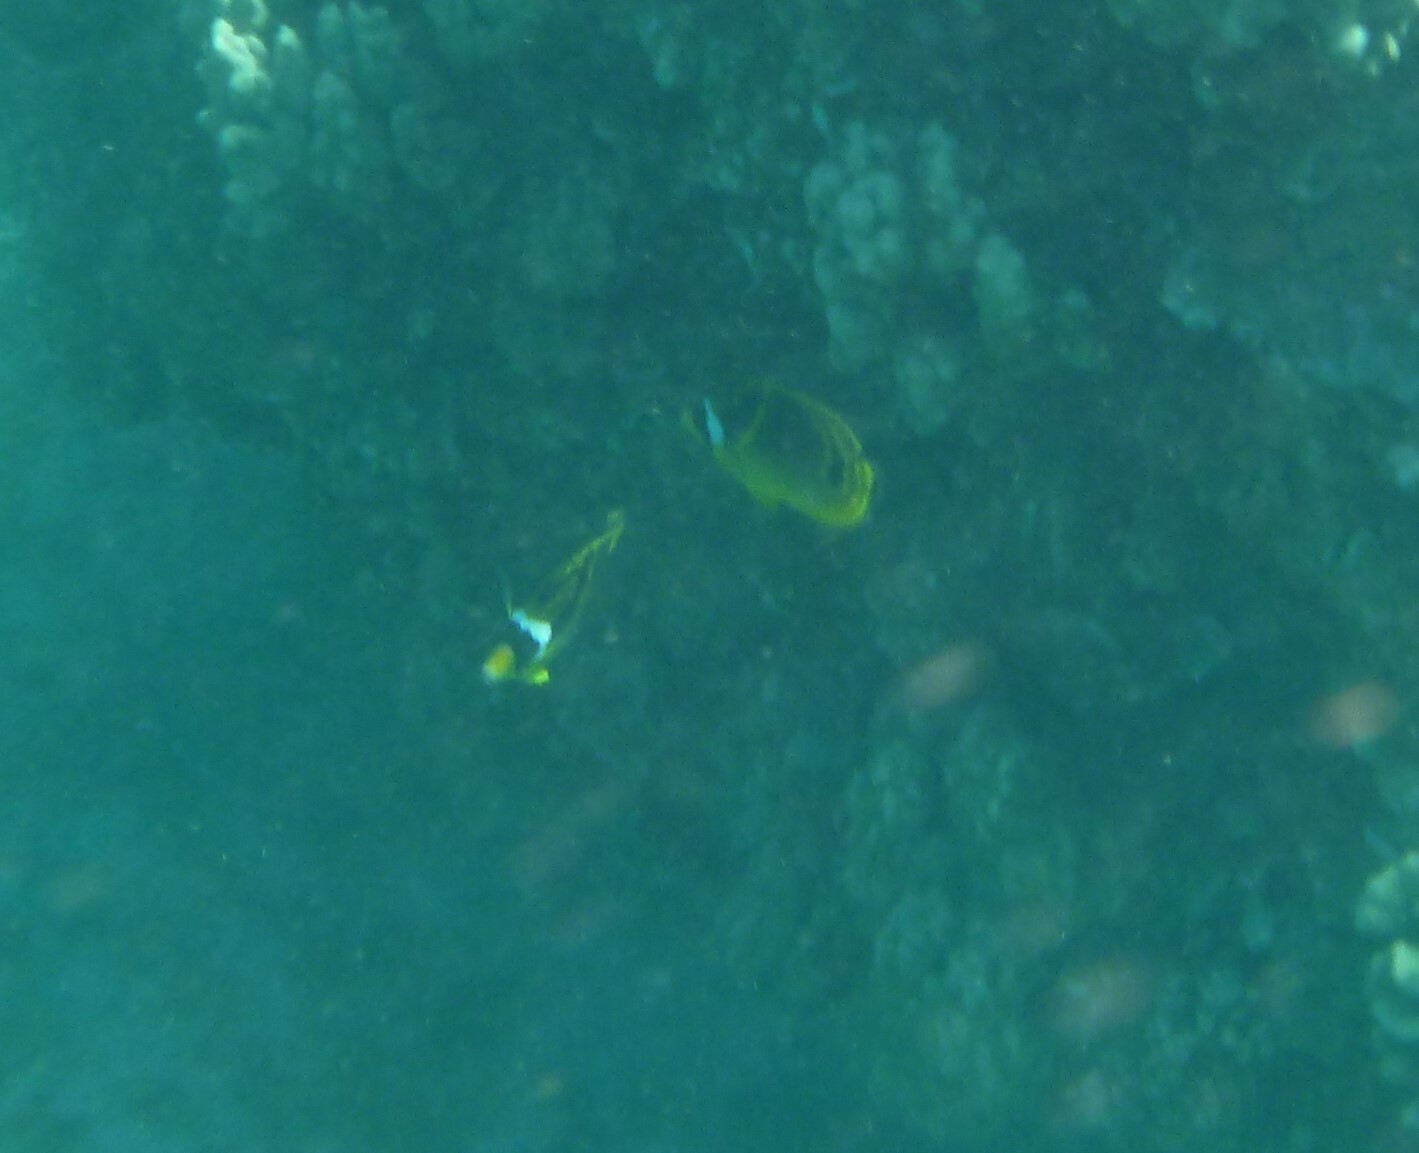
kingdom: Animalia
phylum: Chordata
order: Perciformes
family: Chaetodontidae
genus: Chaetodon
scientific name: Chaetodon lunula
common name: Raccoon butterflyfish
